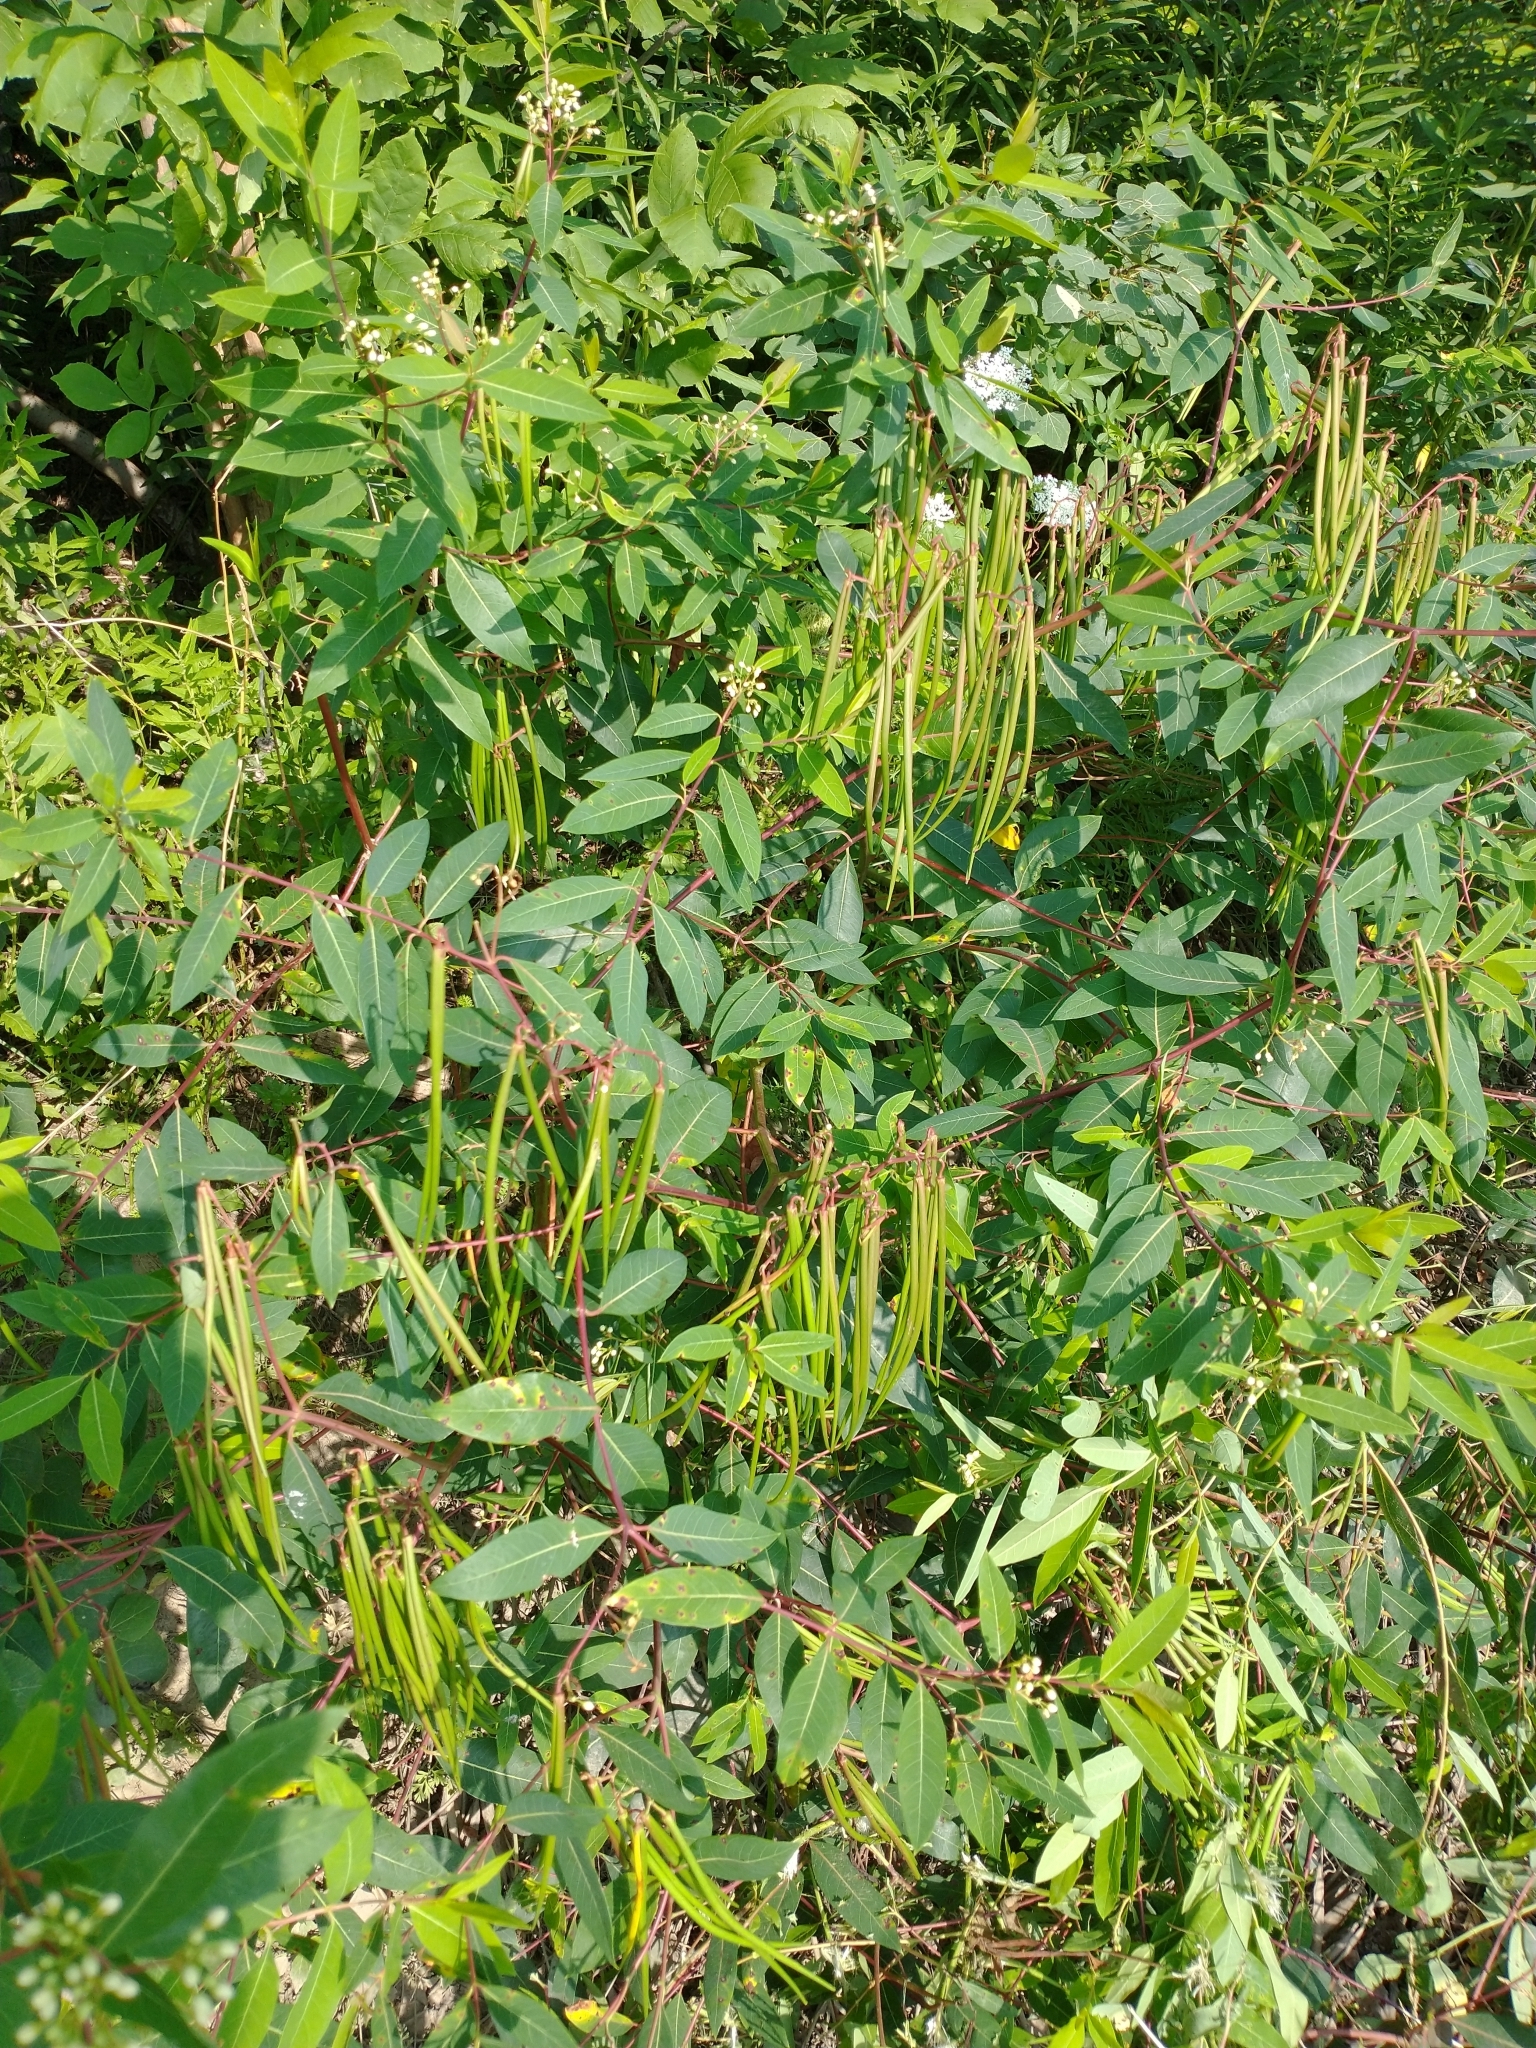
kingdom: Plantae
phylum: Tracheophyta
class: Magnoliopsida
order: Gentianales
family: Apocynaceae
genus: Apocynum
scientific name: Apocynum cannabinum
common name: Hemp dogbane
